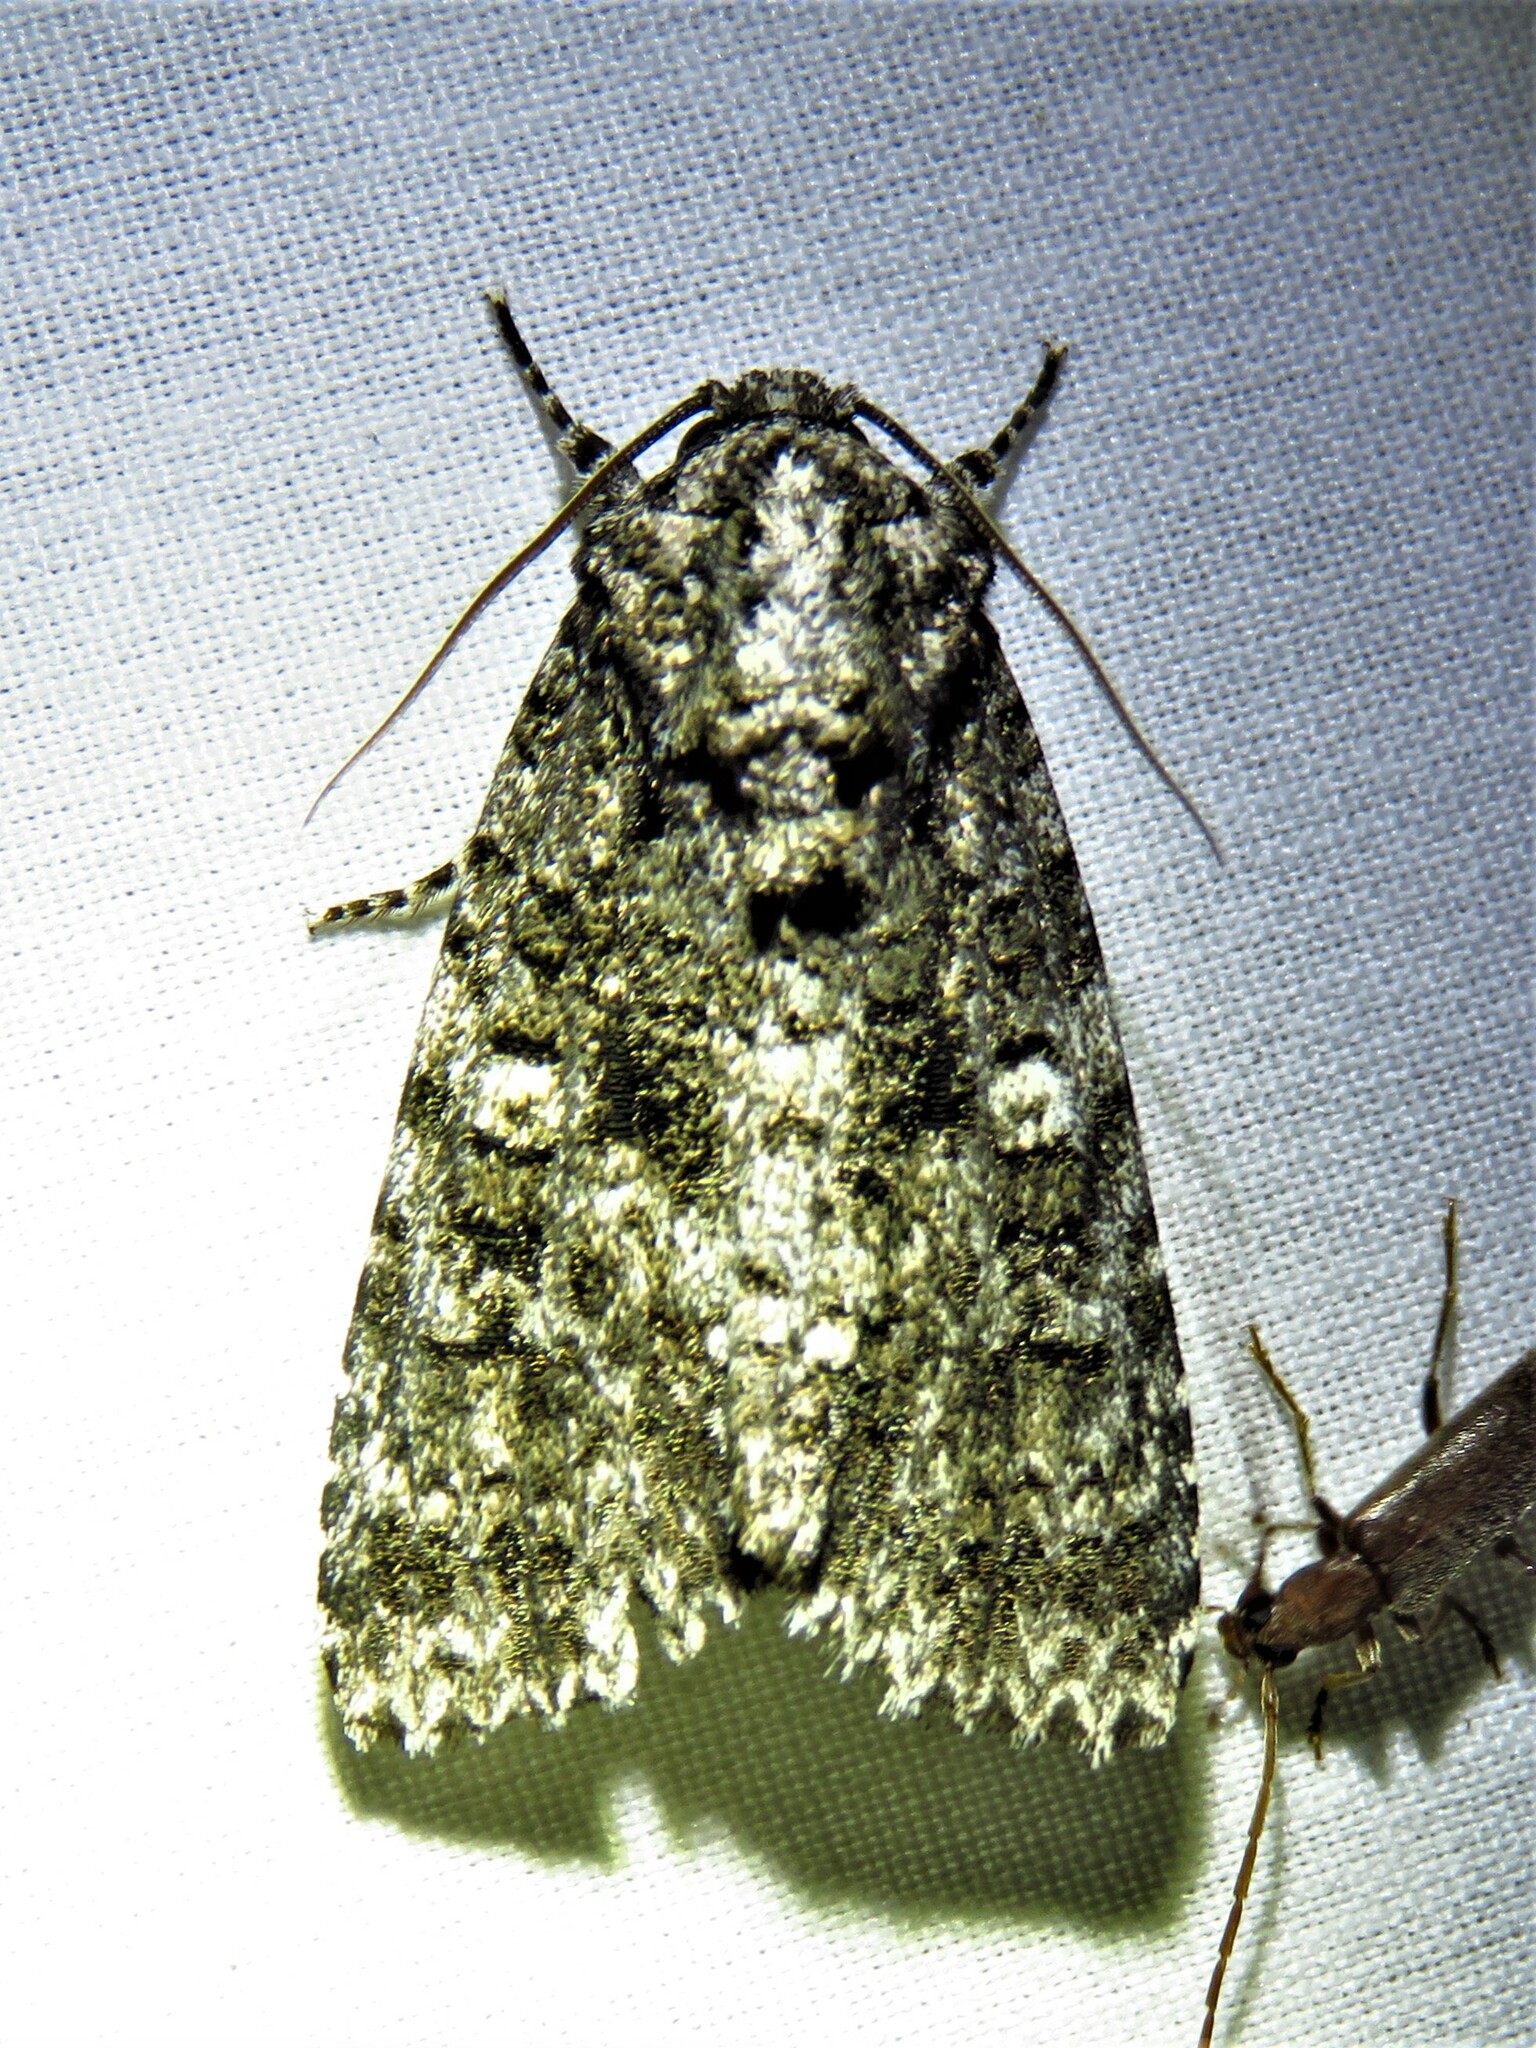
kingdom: Animalia
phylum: Arthropoda
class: Insecta
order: Lepidoptera
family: Noctuidae
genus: Acronicta
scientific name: Acronicta afflicta
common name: Afflicted dagger moth
